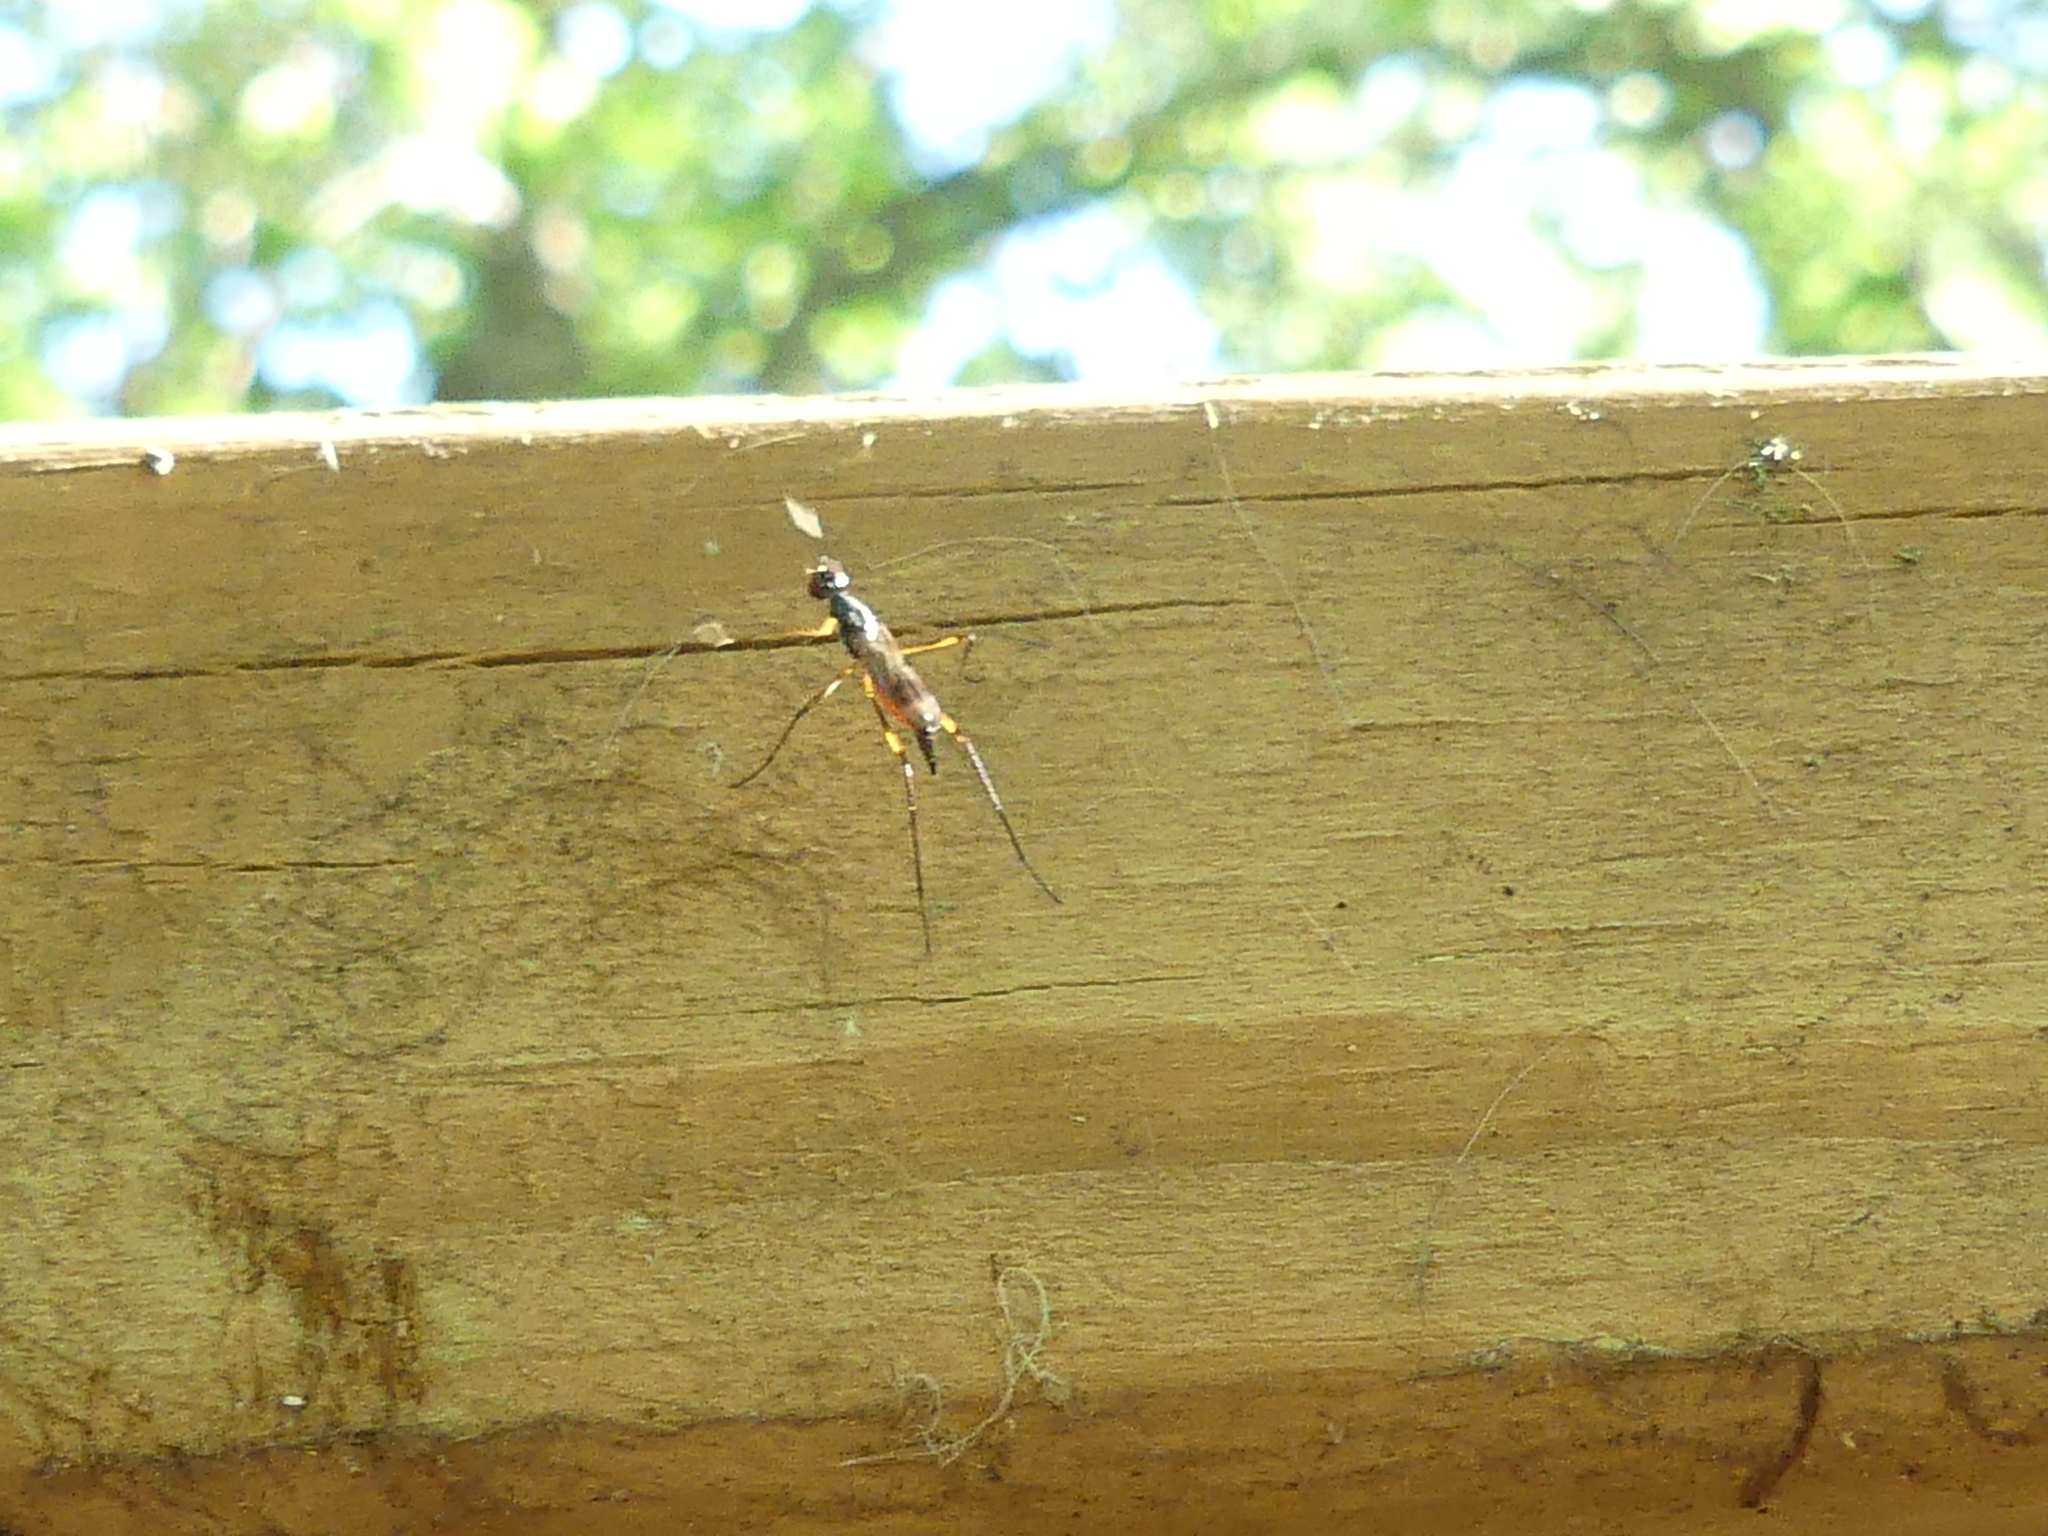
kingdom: Animalia
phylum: Arthropoda
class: Insecta
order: Diptera
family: Micropezidae
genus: Rainieria
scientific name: Rainieria antennaepes
